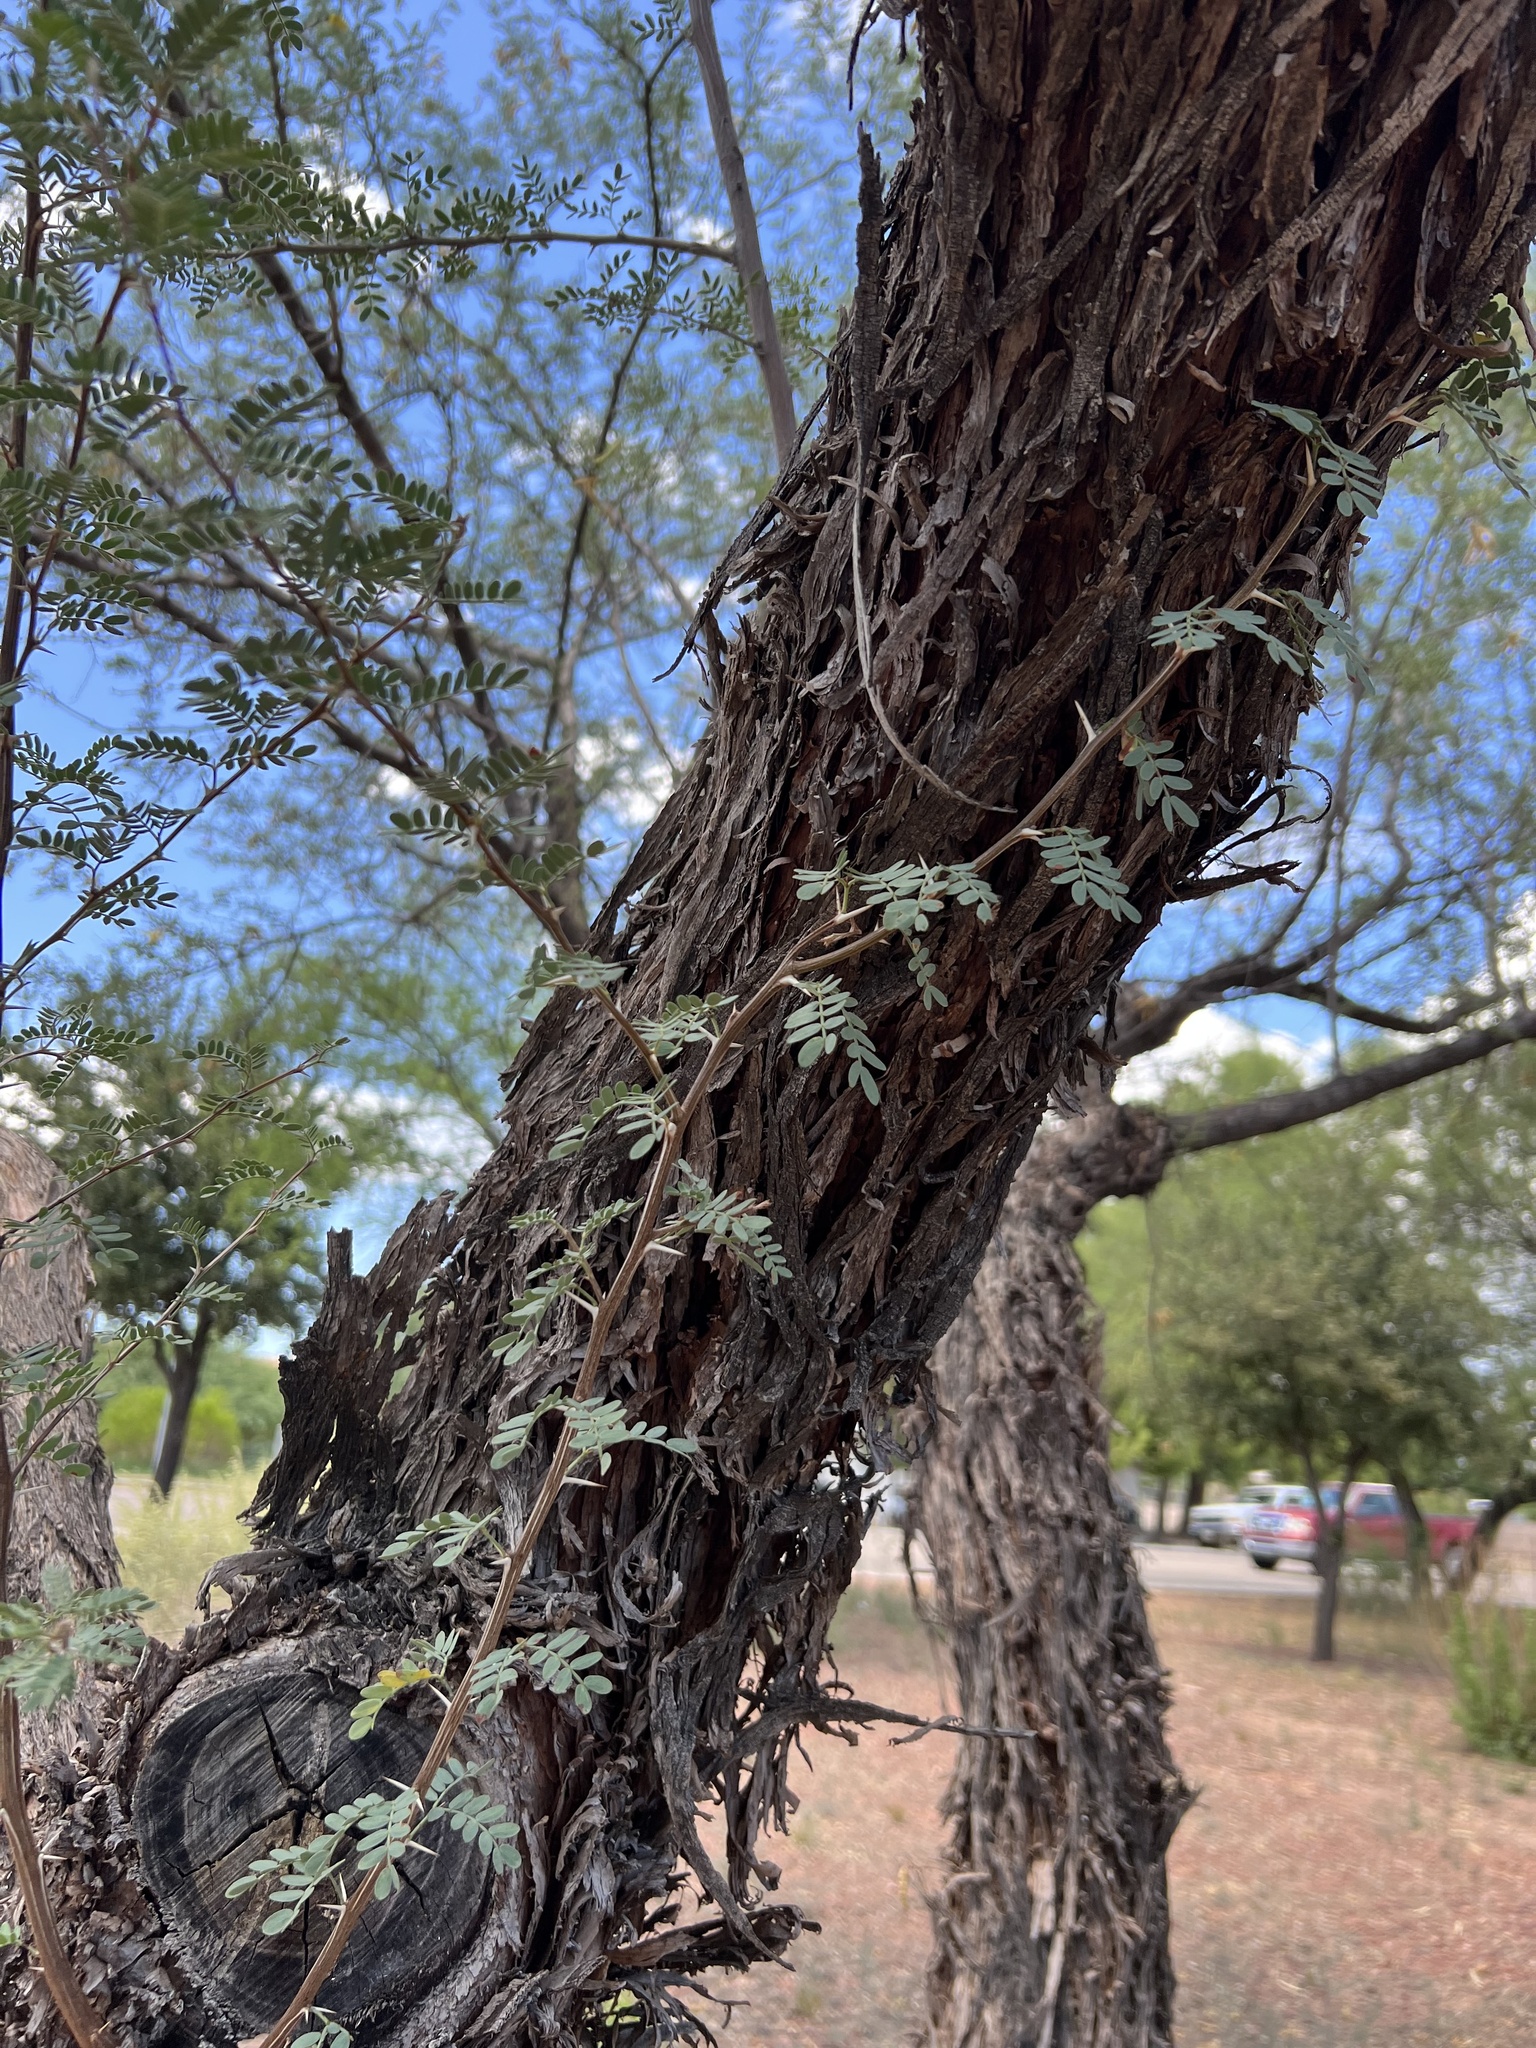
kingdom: Plantae
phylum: Tracheophyta
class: Magnoliopsida
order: Fabales
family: Fabaceae
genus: Prosopis
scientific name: Prosopis pubescens
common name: Screw-bean
